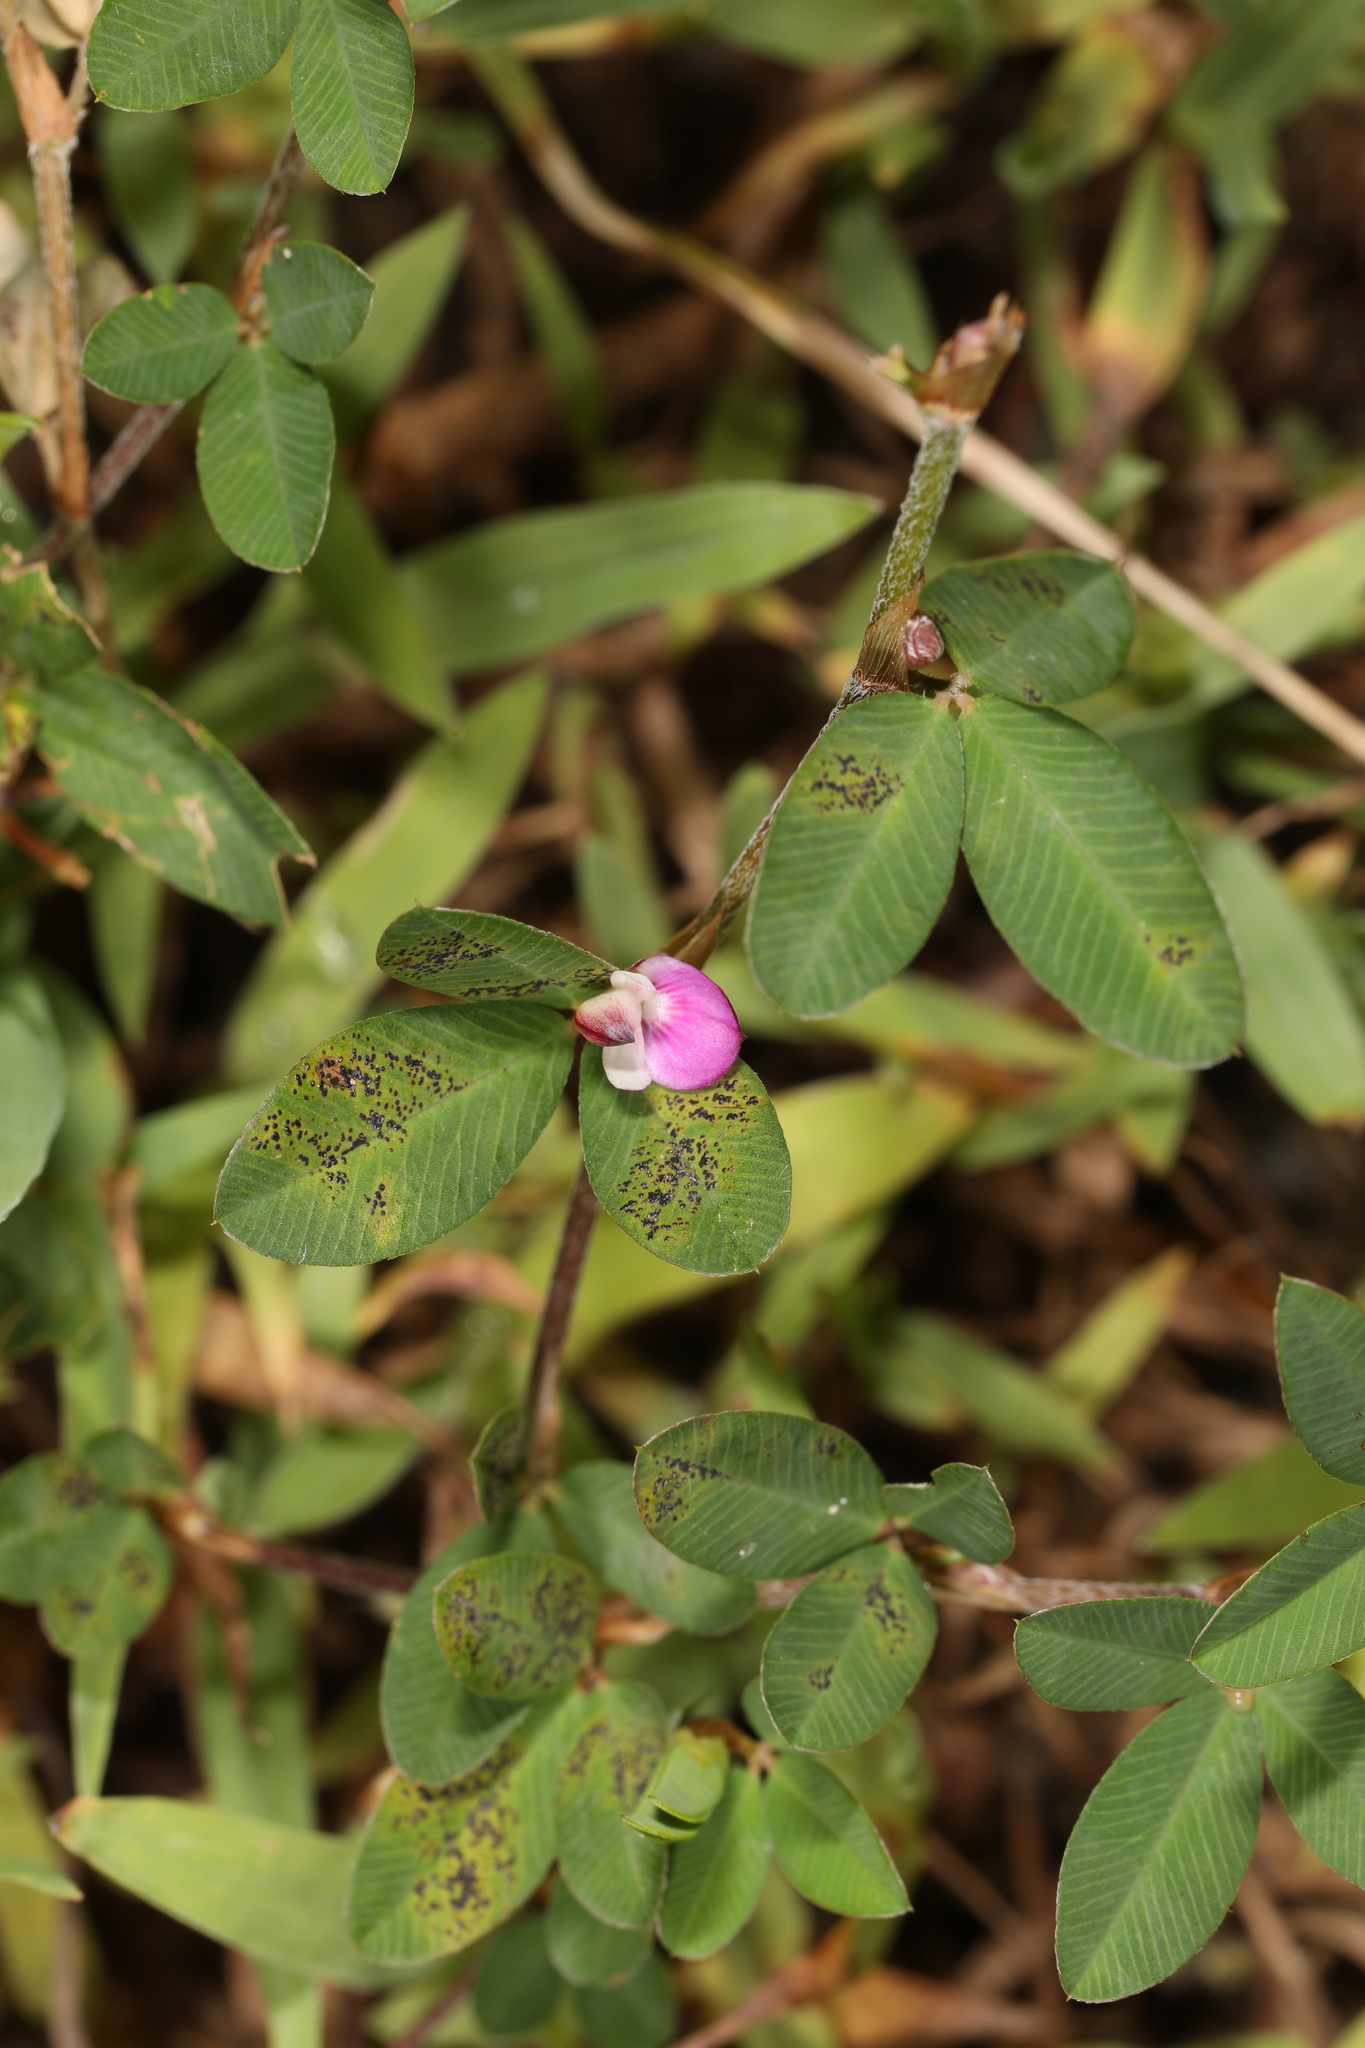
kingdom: Plantae
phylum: Tracheophyta
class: Magnoliopsida
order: Fabales
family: Fabaceae
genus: Kummerowia
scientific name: Kummerowia striata
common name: Japanese clover
